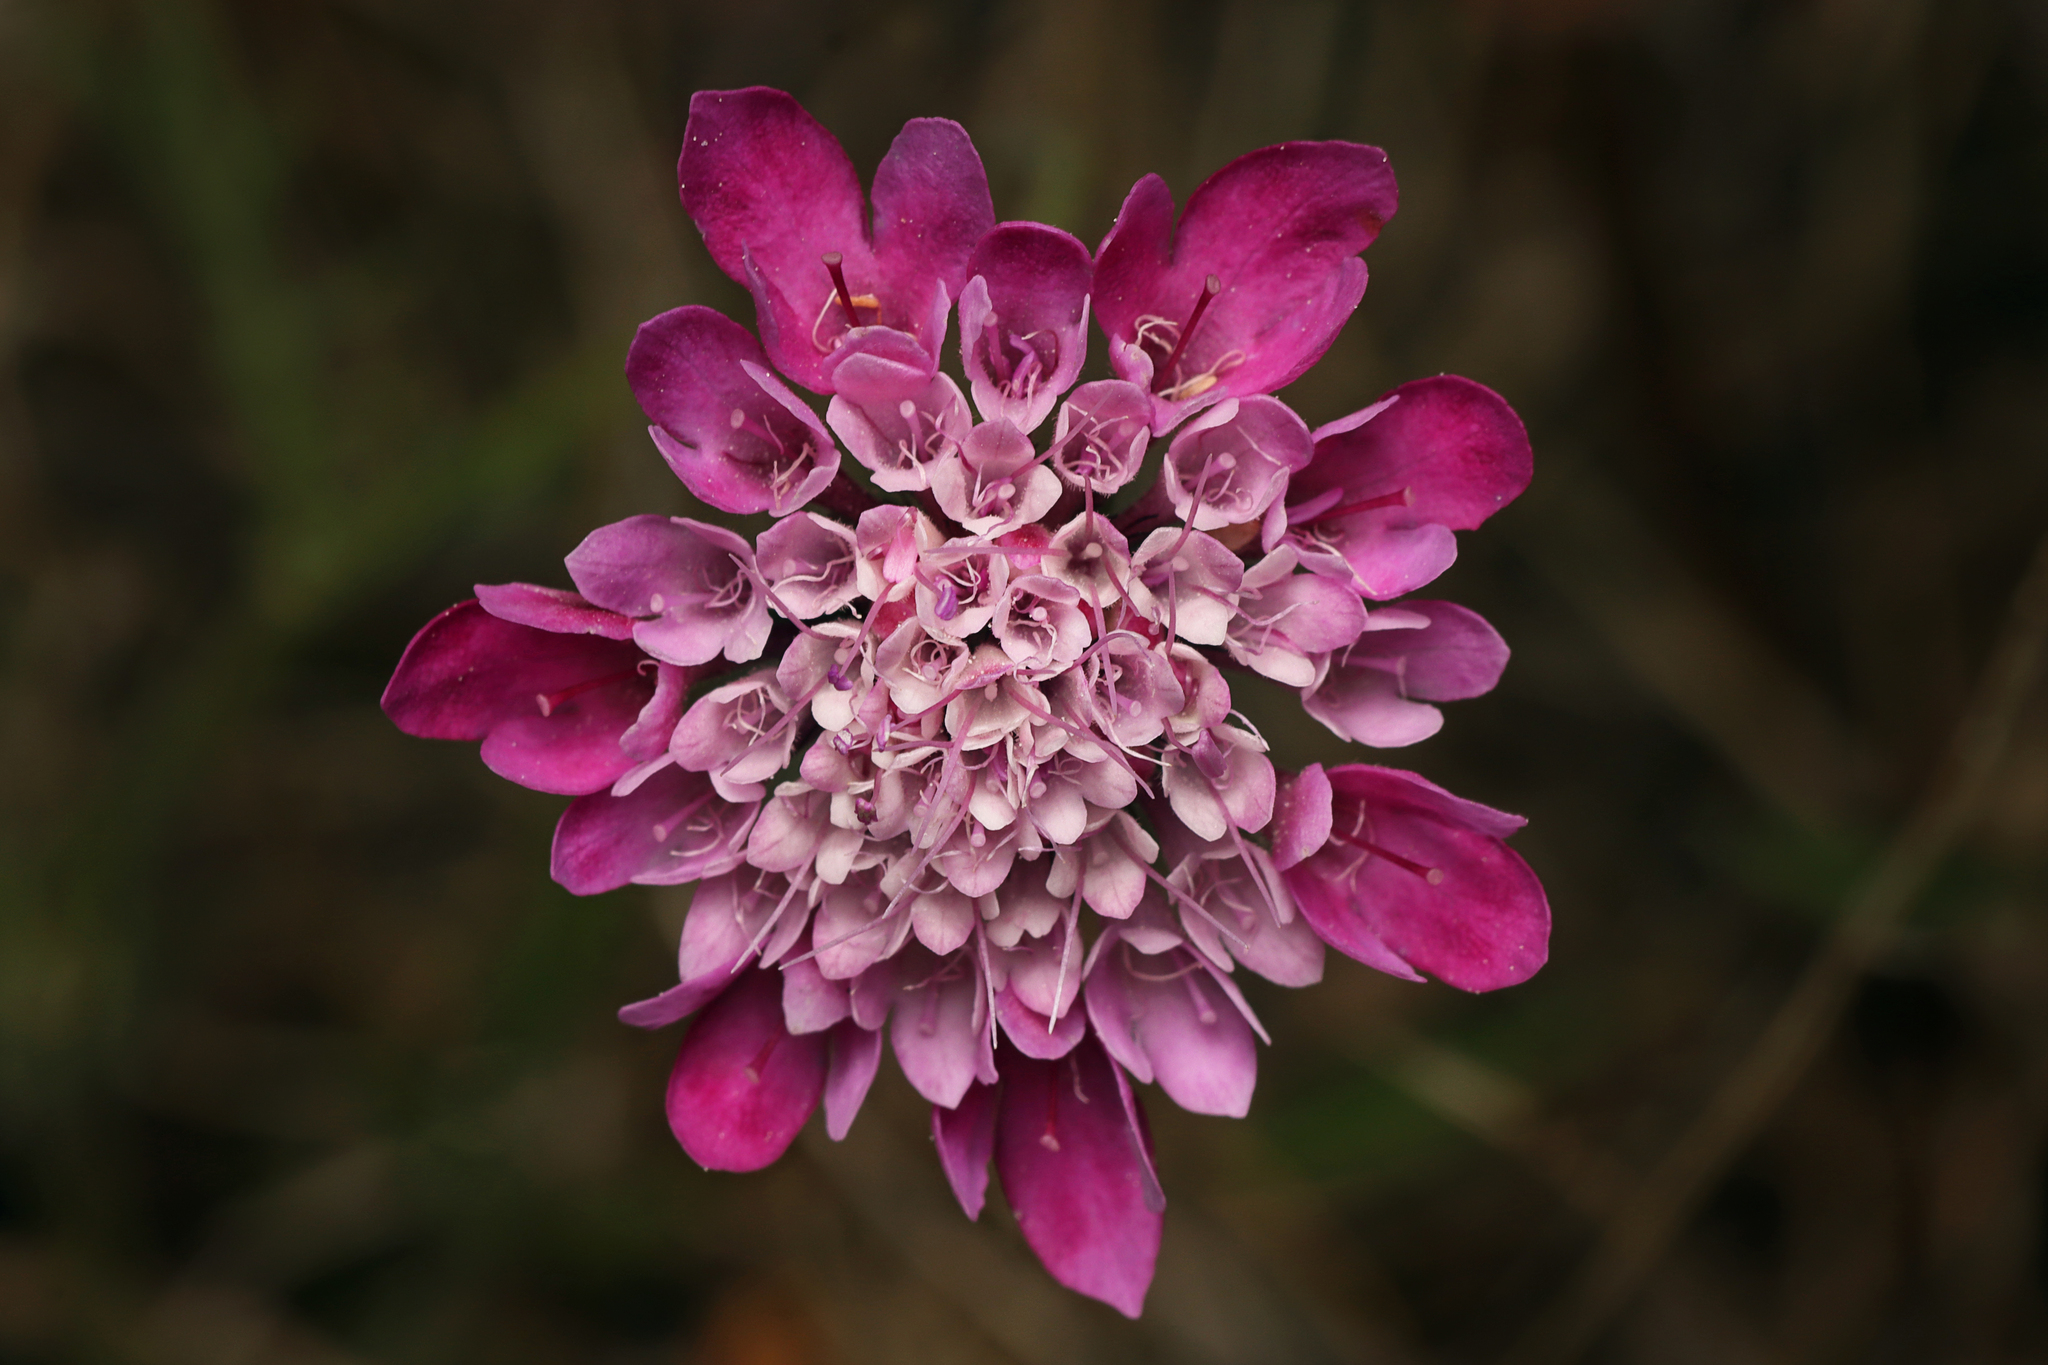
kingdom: Plantae
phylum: Tracheophyta
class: Magnoliopsida
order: Dipsacales
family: Caprifoliaceae
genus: Sixalix
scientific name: Sixalix atropurpurea
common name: Sweet scabious
